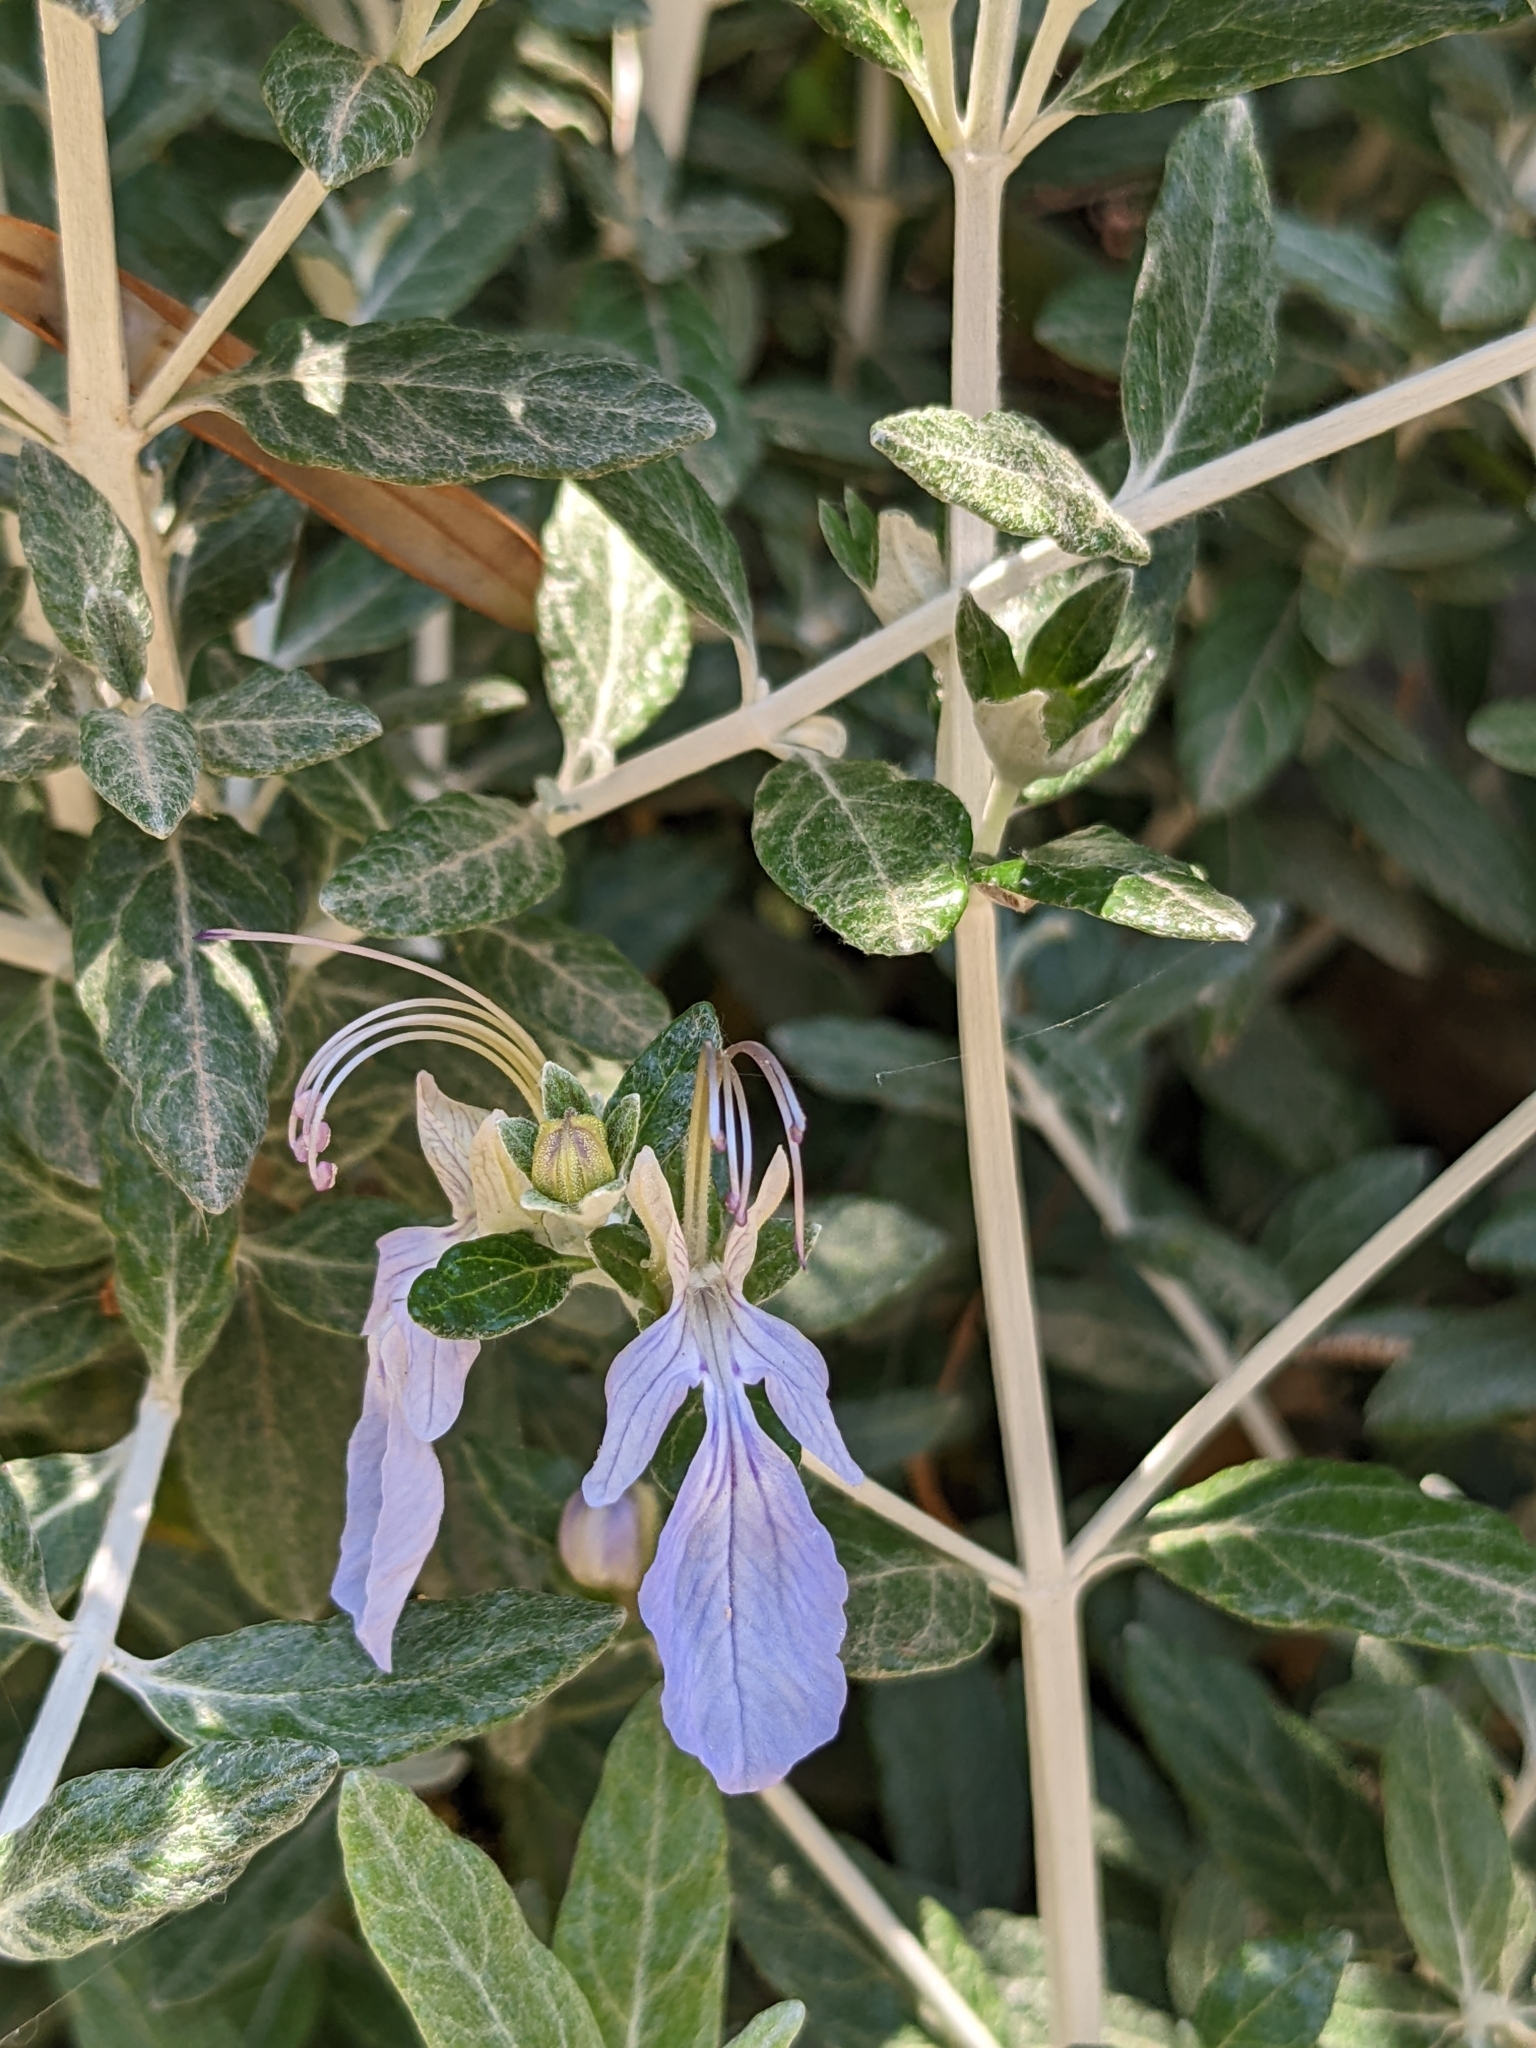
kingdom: Plantae
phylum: Tracheophyta
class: Magnoliopsida
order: Lamiales
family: Lamiaceae
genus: Teucrium
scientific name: Teucrium fruticans
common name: Shrubby germander
